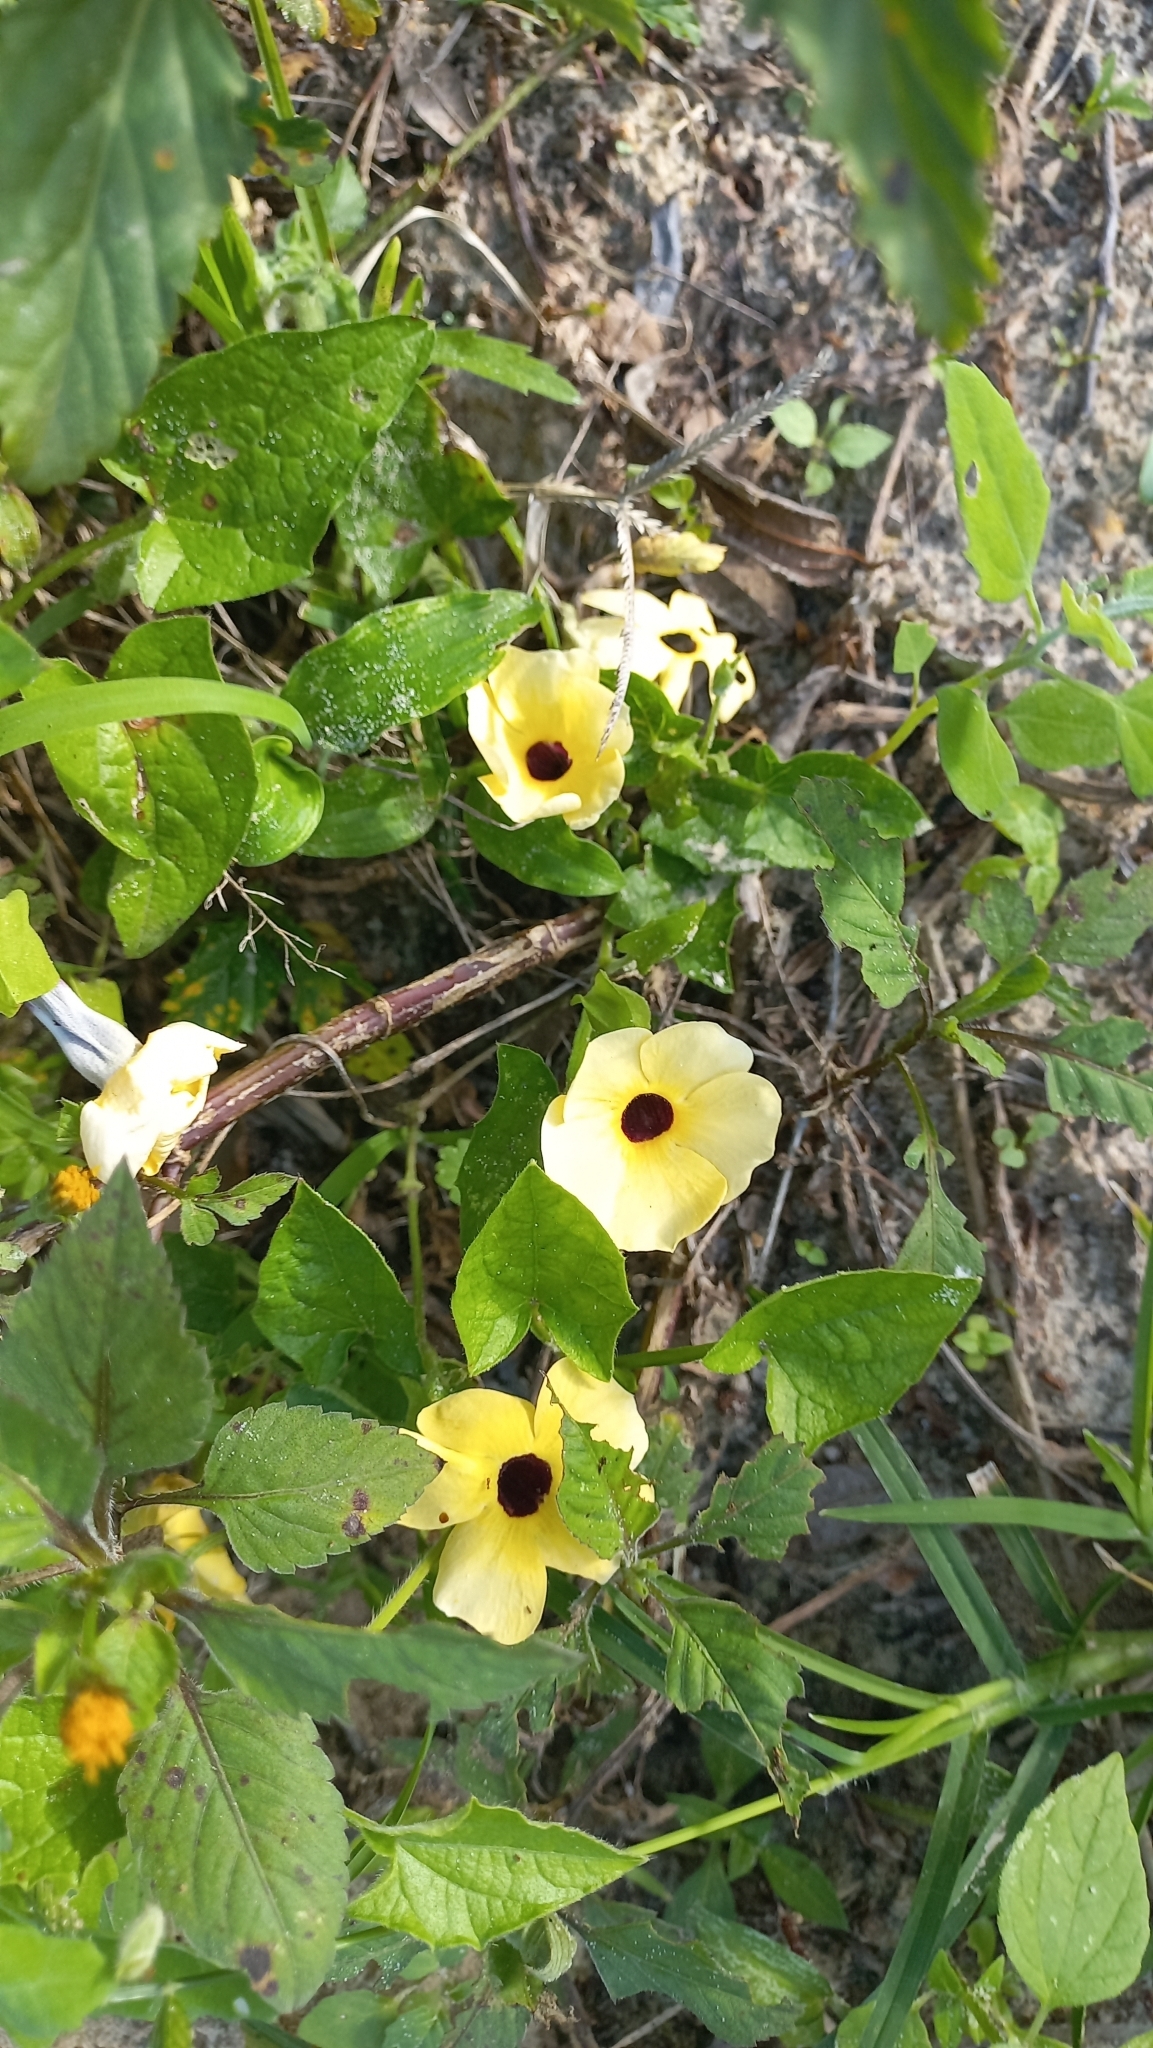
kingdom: Plantae
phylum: Tracheophyta
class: Magnoliopsida
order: Lamiales
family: Acanthaceae
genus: Thunbergia
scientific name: Thunbergia alata
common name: Blackeyed susan vine
